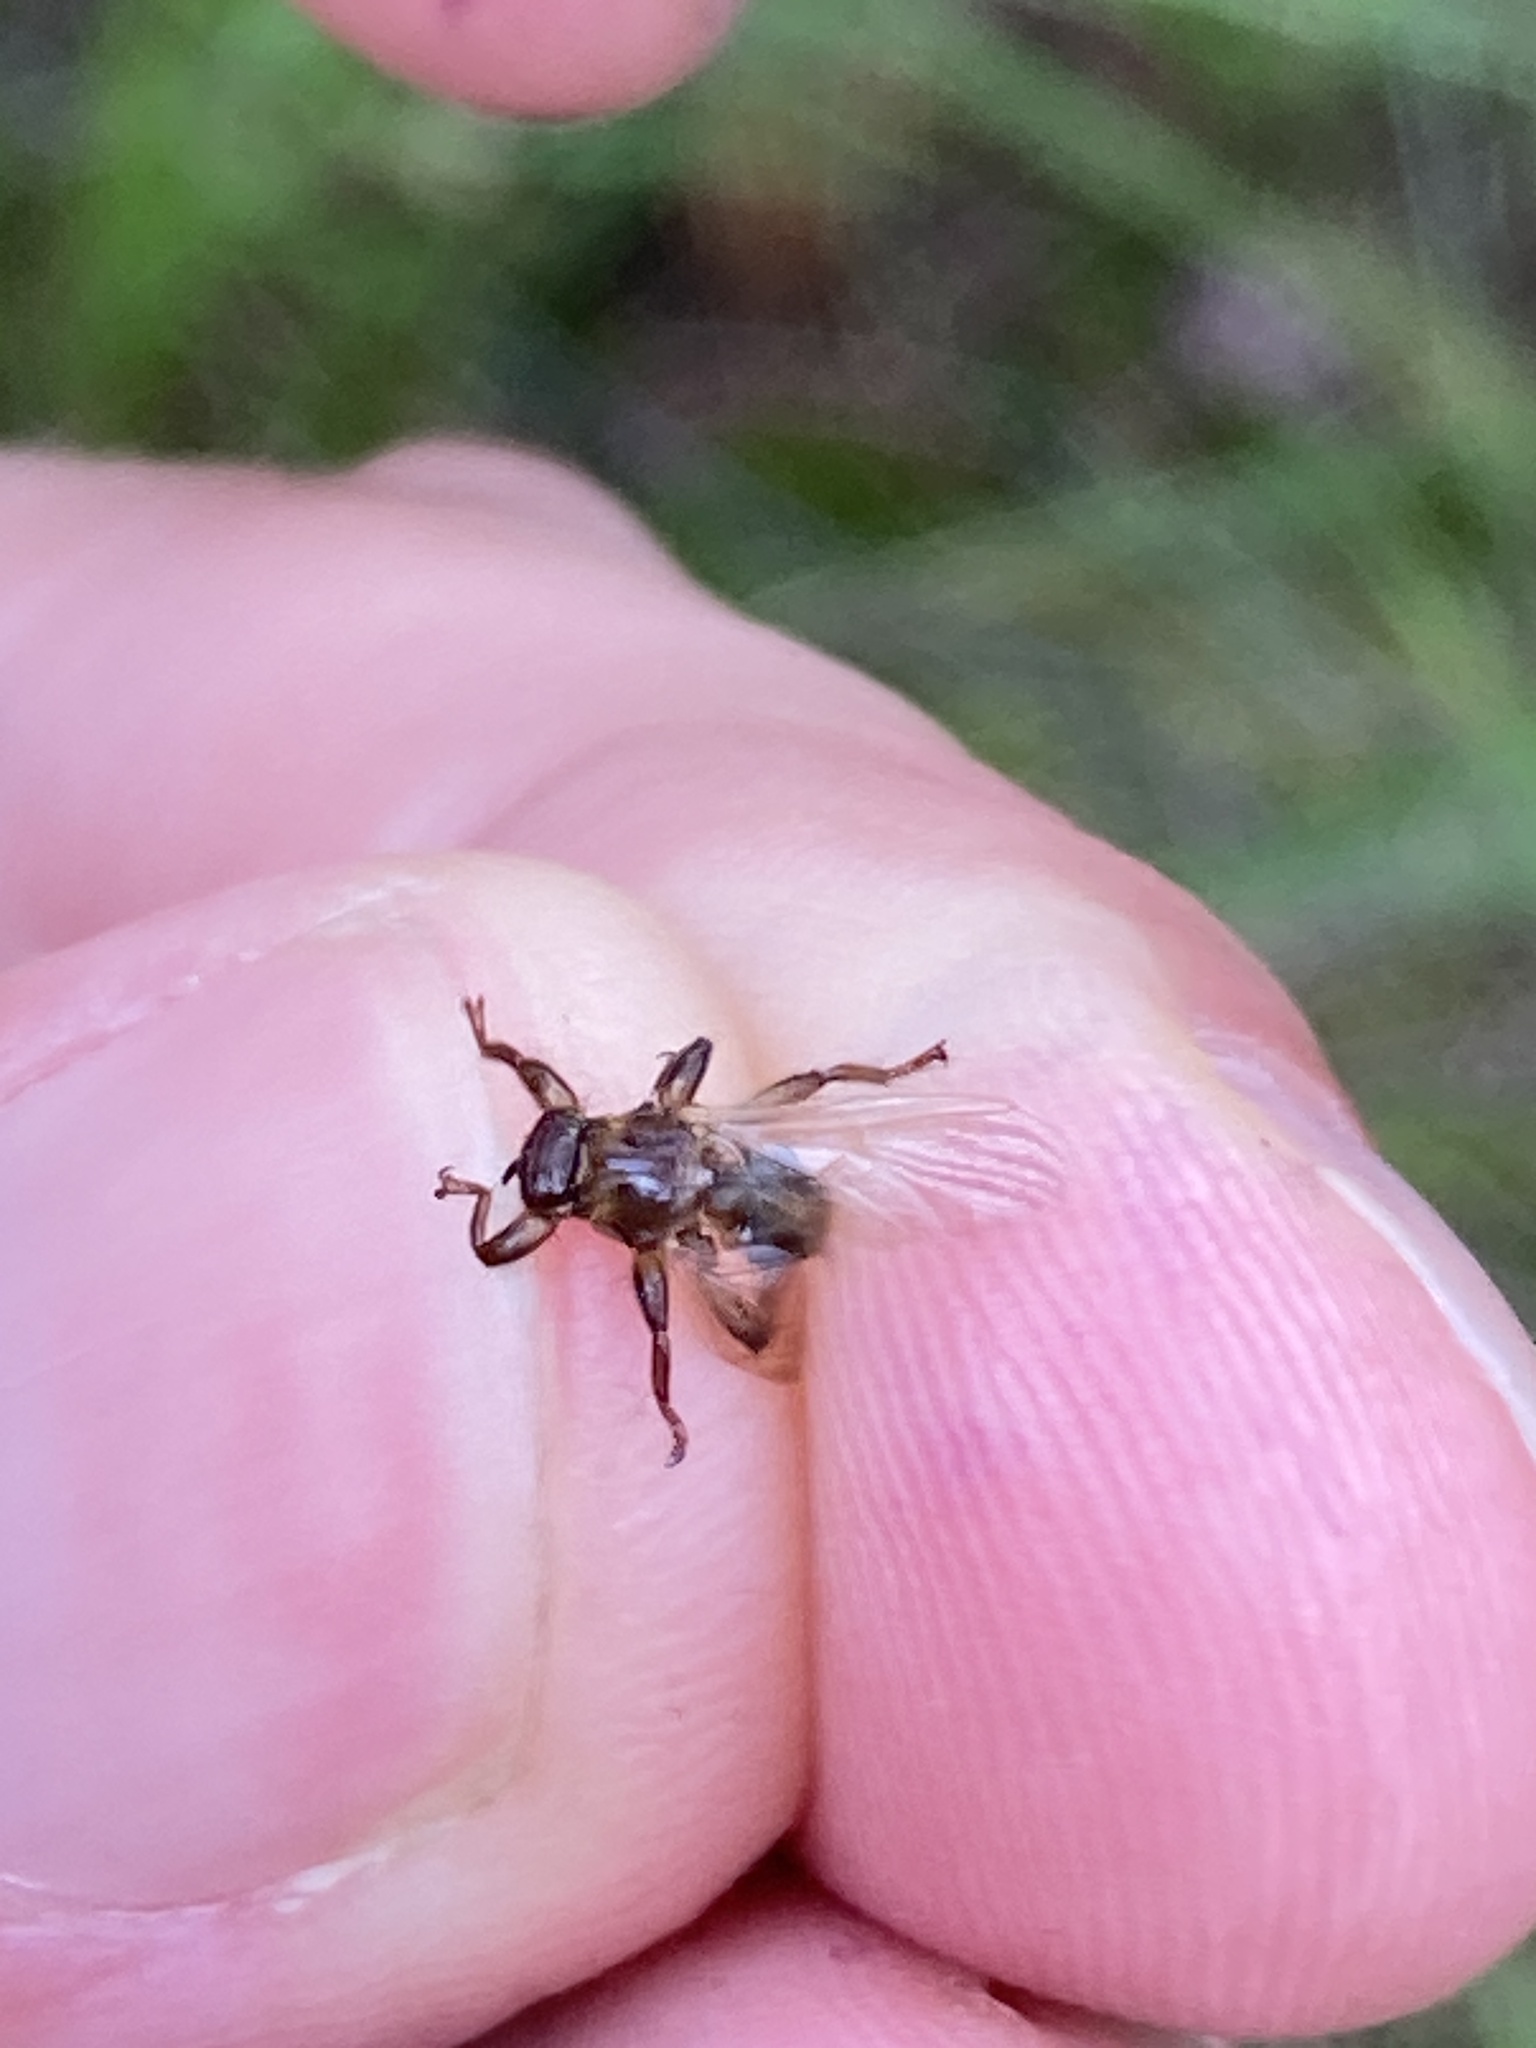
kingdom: Animalia
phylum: Arthropoda
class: Insecta
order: Diptera
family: Hippoboscidae
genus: Lipoptena
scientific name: Lipoptena cervi
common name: Deer ked
